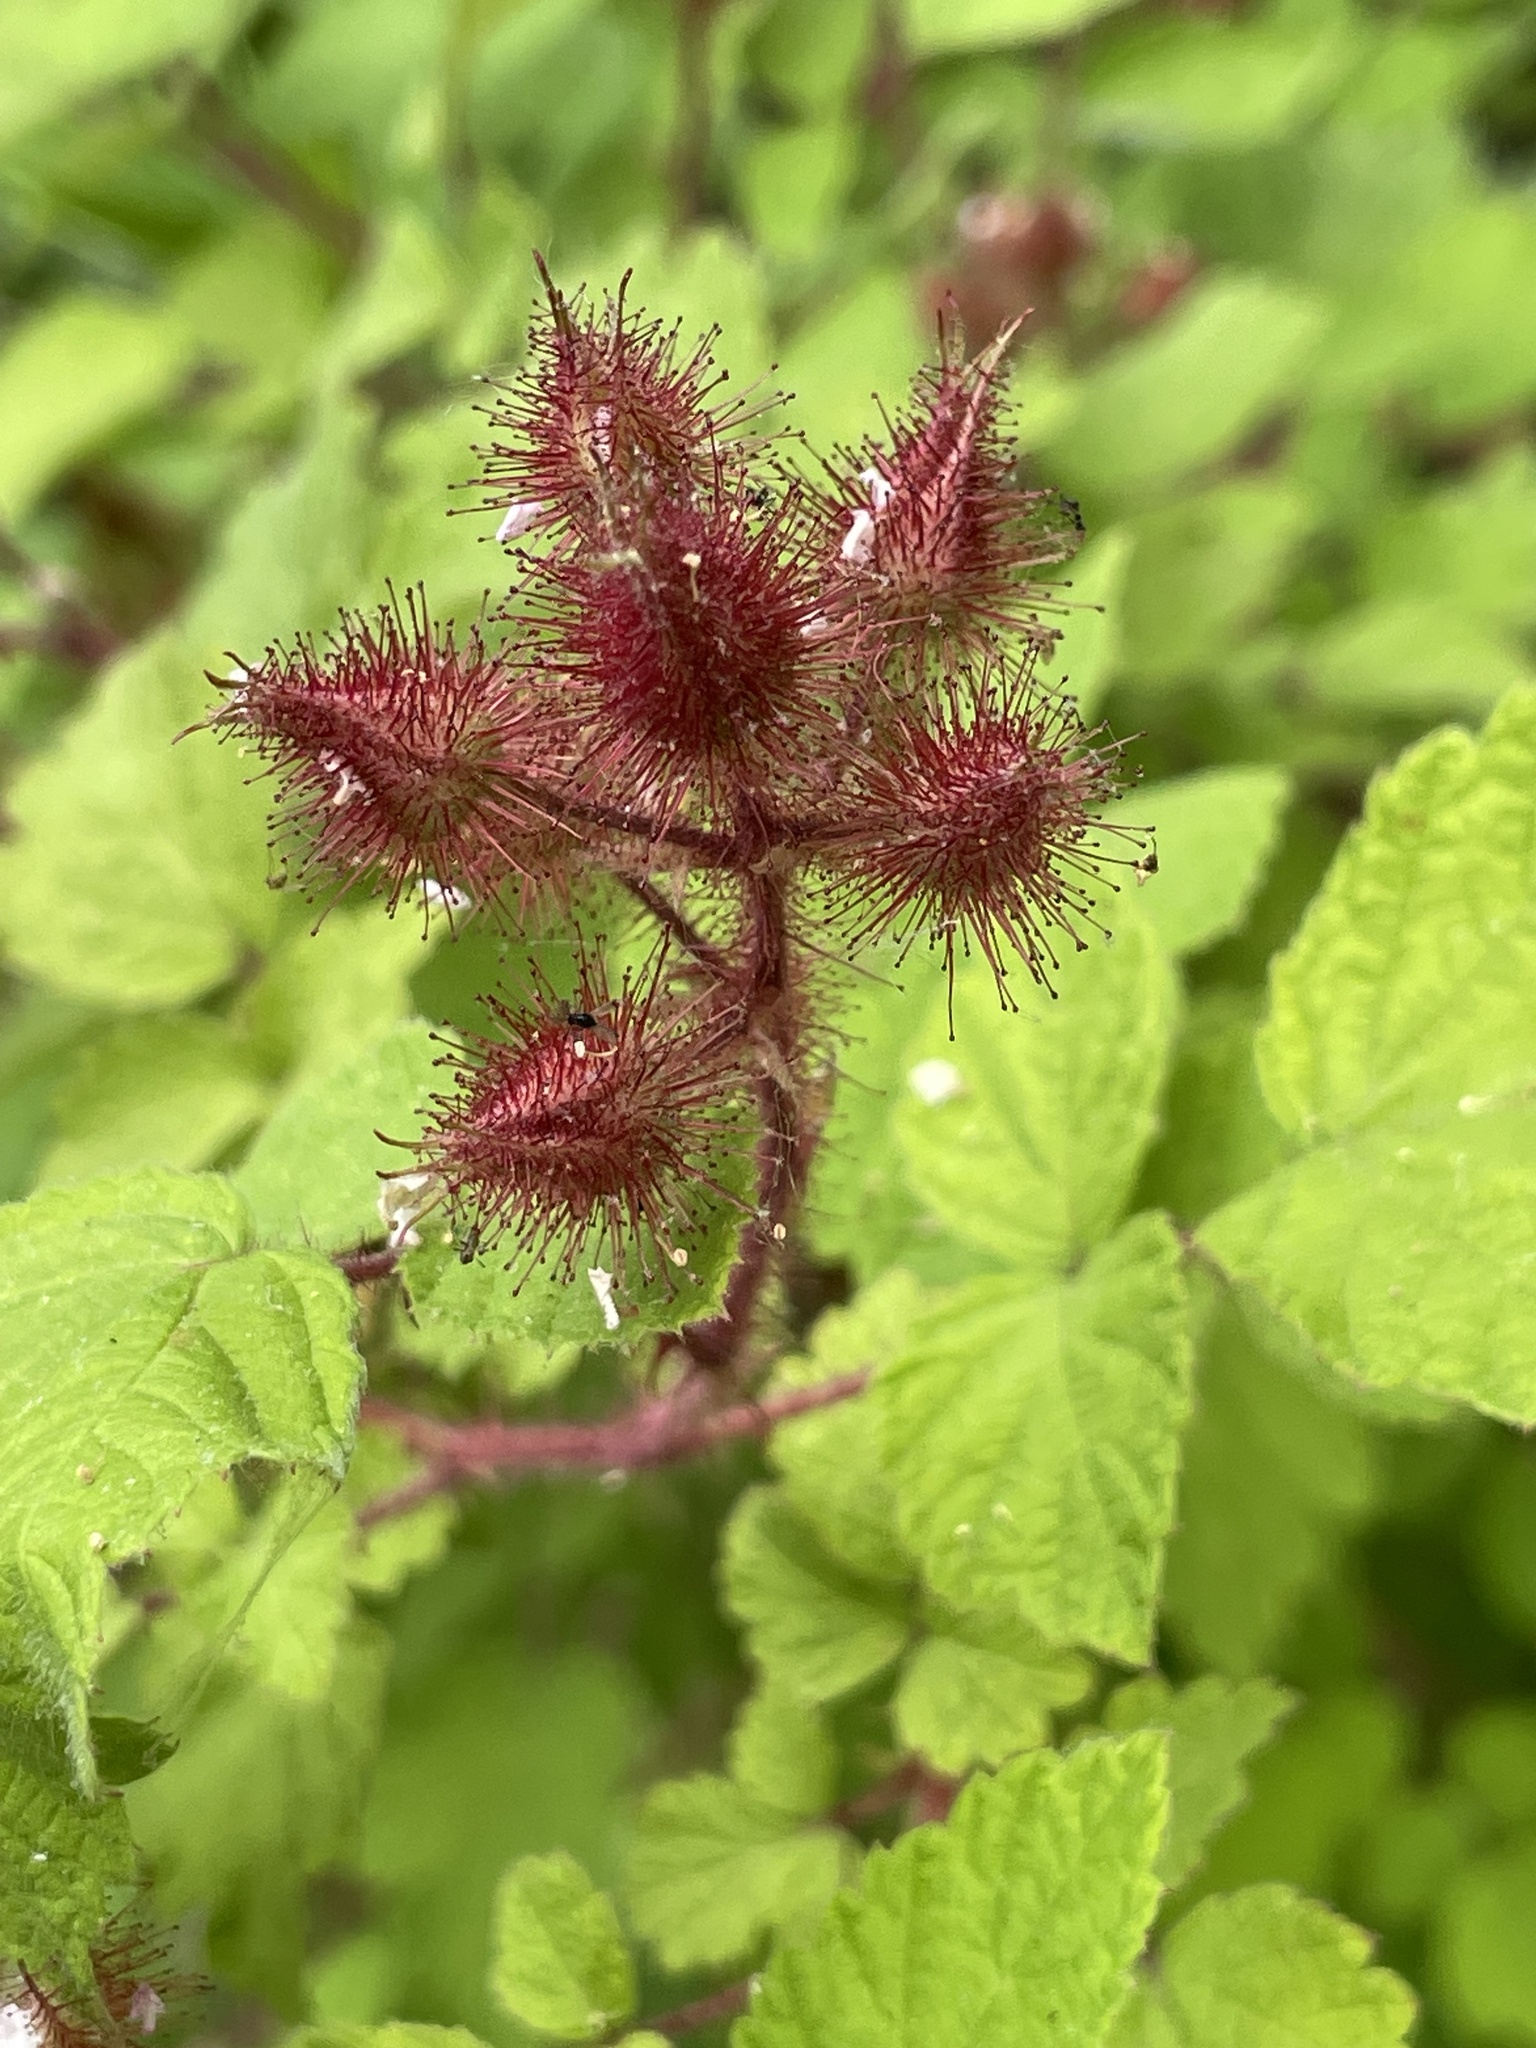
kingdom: Plantae
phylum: Tracheophyta
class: Magnoliopsida
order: Rosales
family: Rosaceae
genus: Rubus
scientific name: Rubus phoenicolasius
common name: Japanese wineberry
